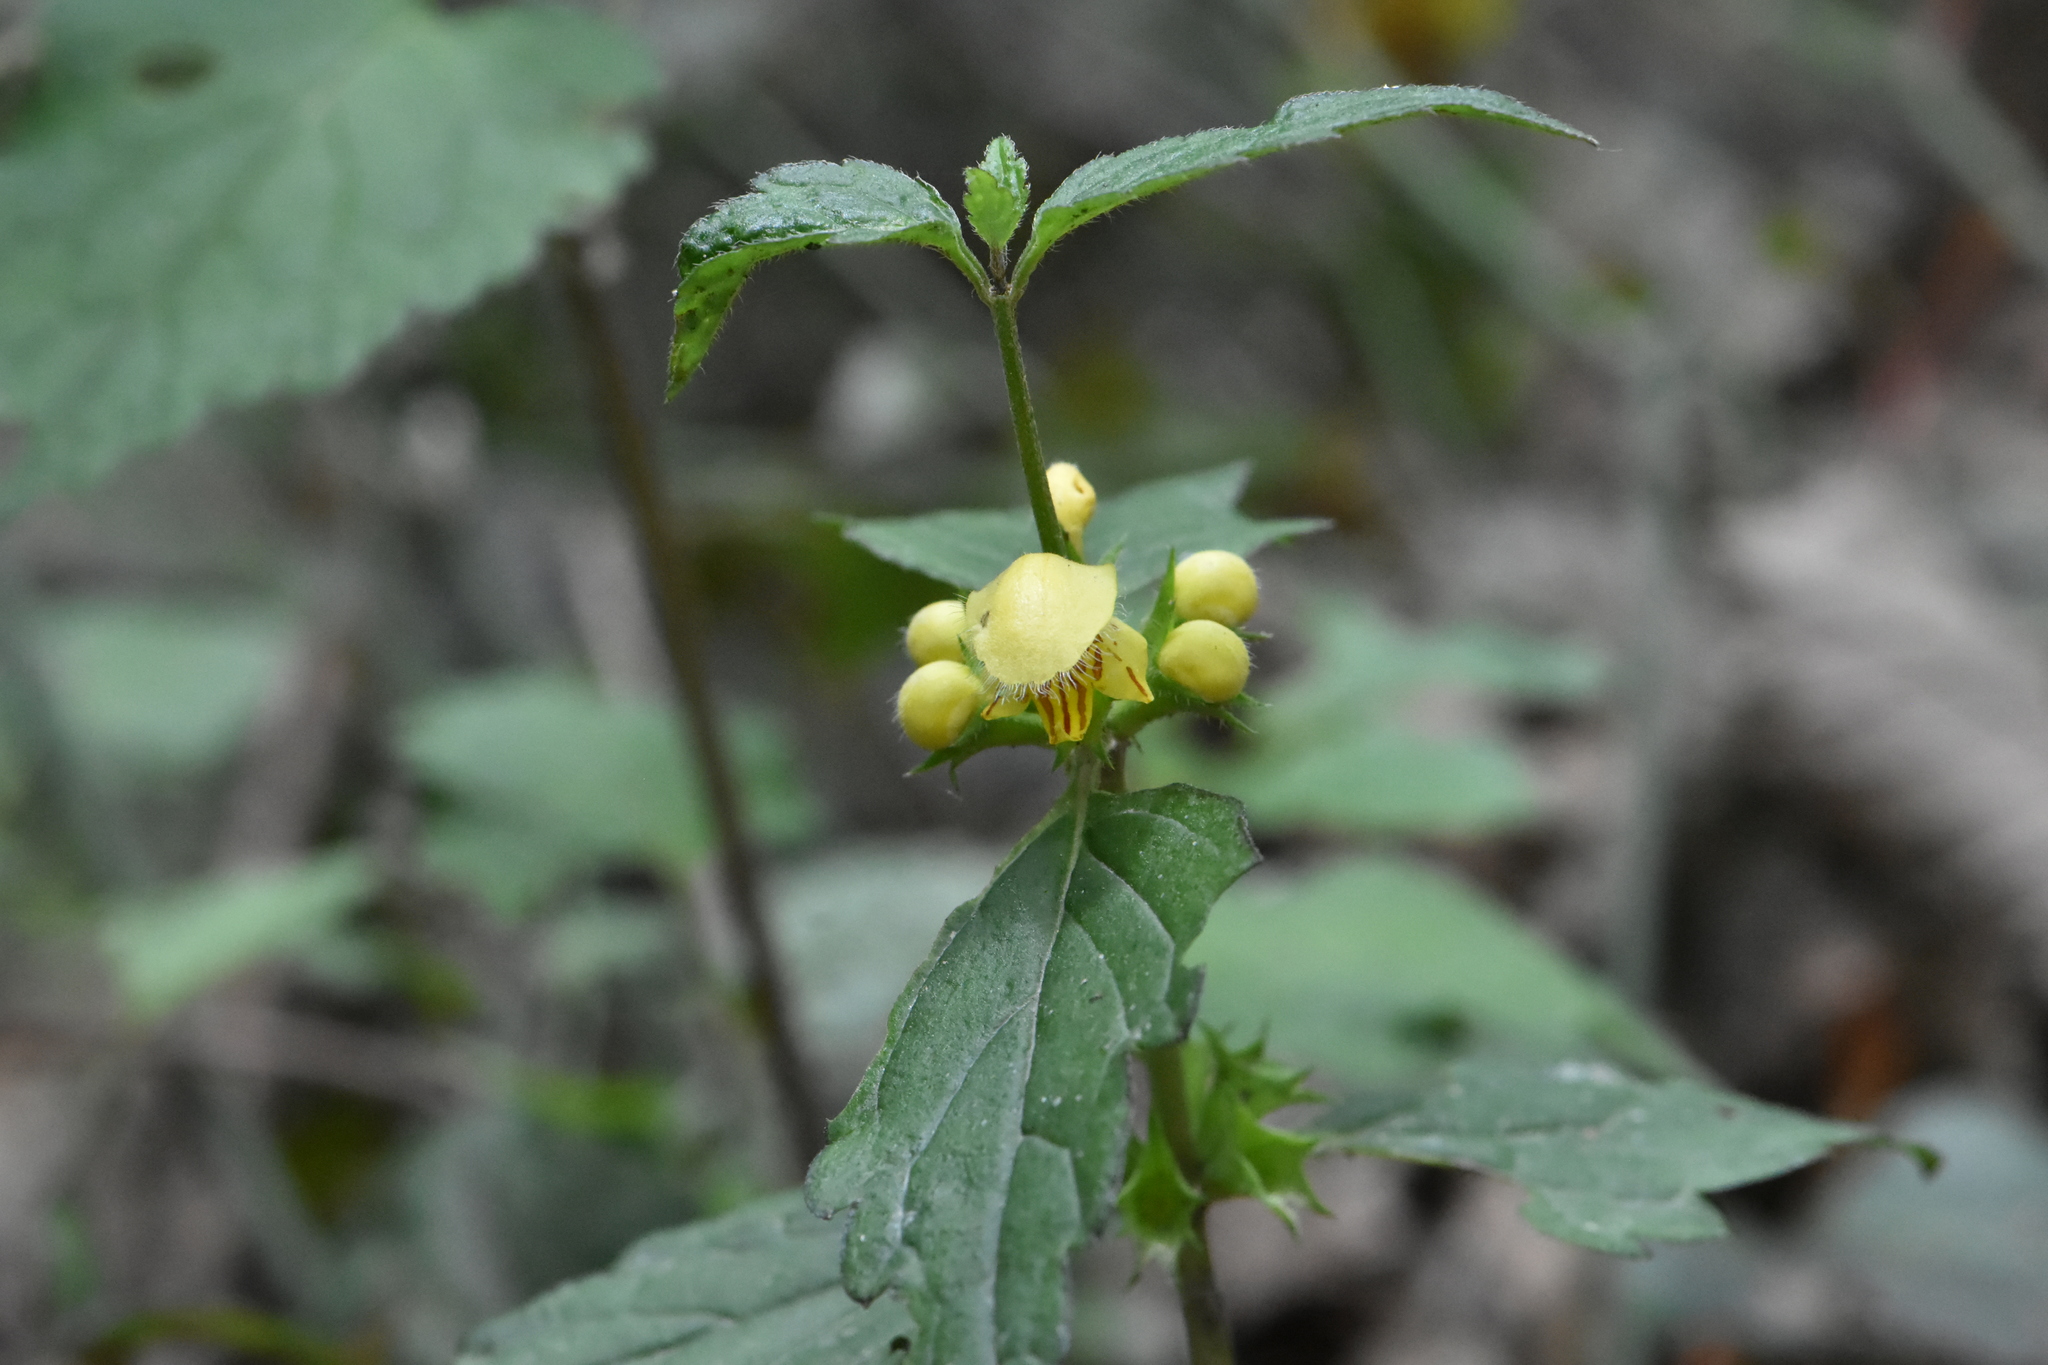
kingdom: Plantae
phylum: Tracheophyta
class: Magnoliopsida
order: Lamiales
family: Lamiaceae
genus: Lamium
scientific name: Lamium galeobdolon
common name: Yellow archangel
